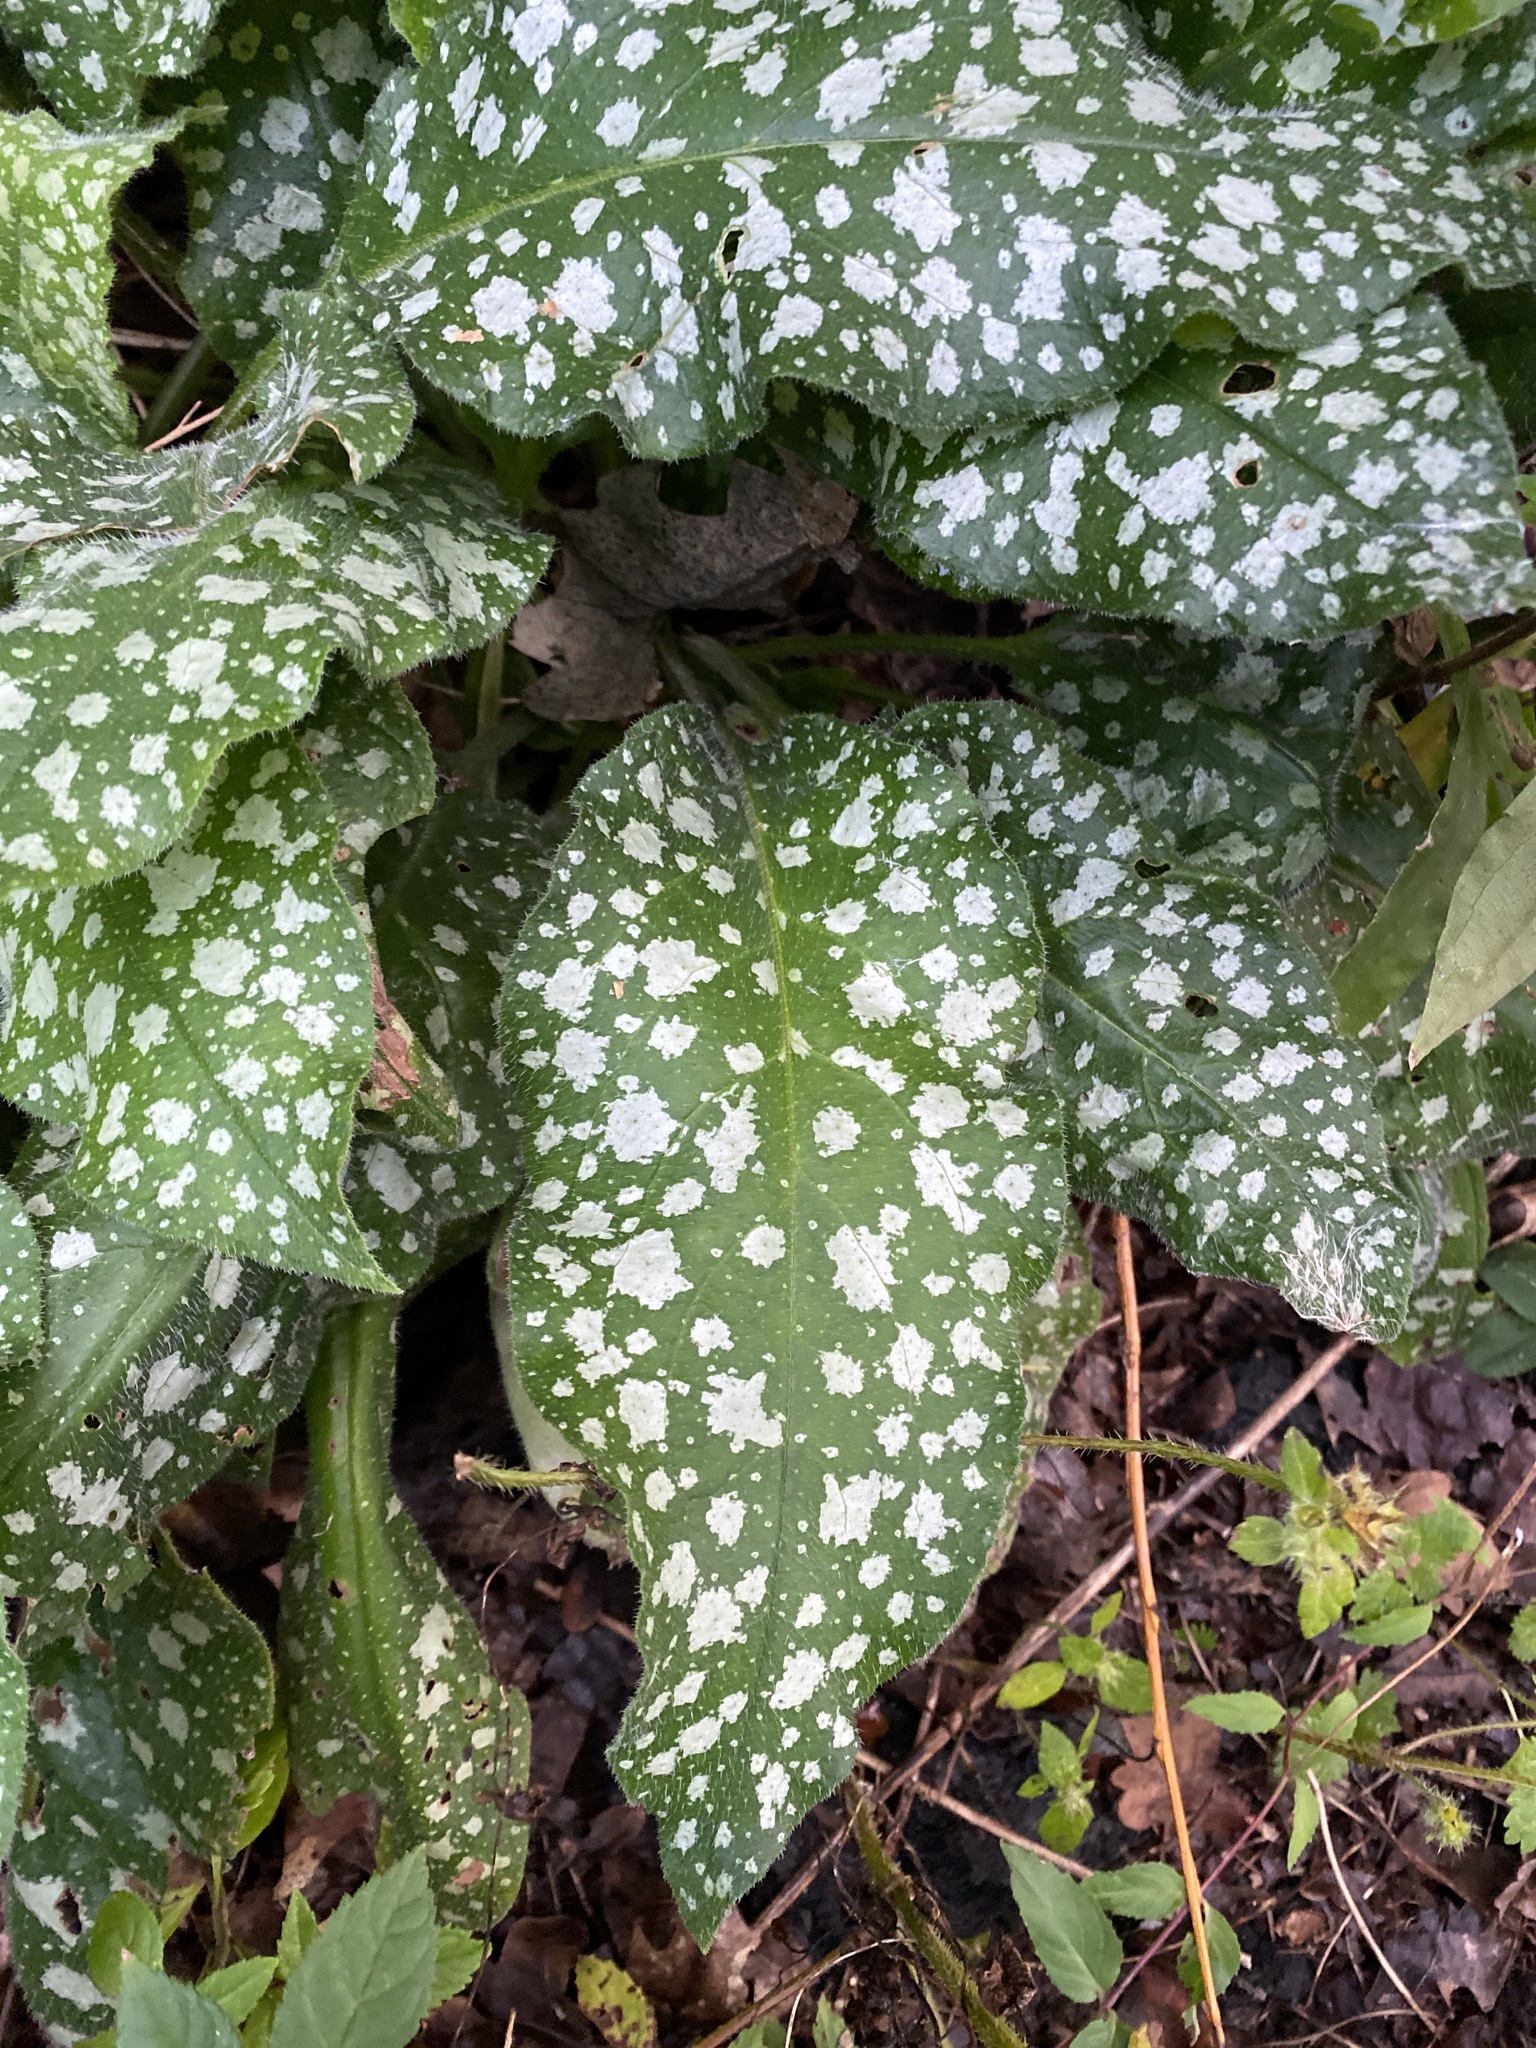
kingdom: Plantae
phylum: Tracheophyta
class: Magnoliopsida
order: Boraginales
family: Boraginaceae
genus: Pulmonaria
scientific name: Pulmonaria saccharata
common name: Bethlehem lungwort
